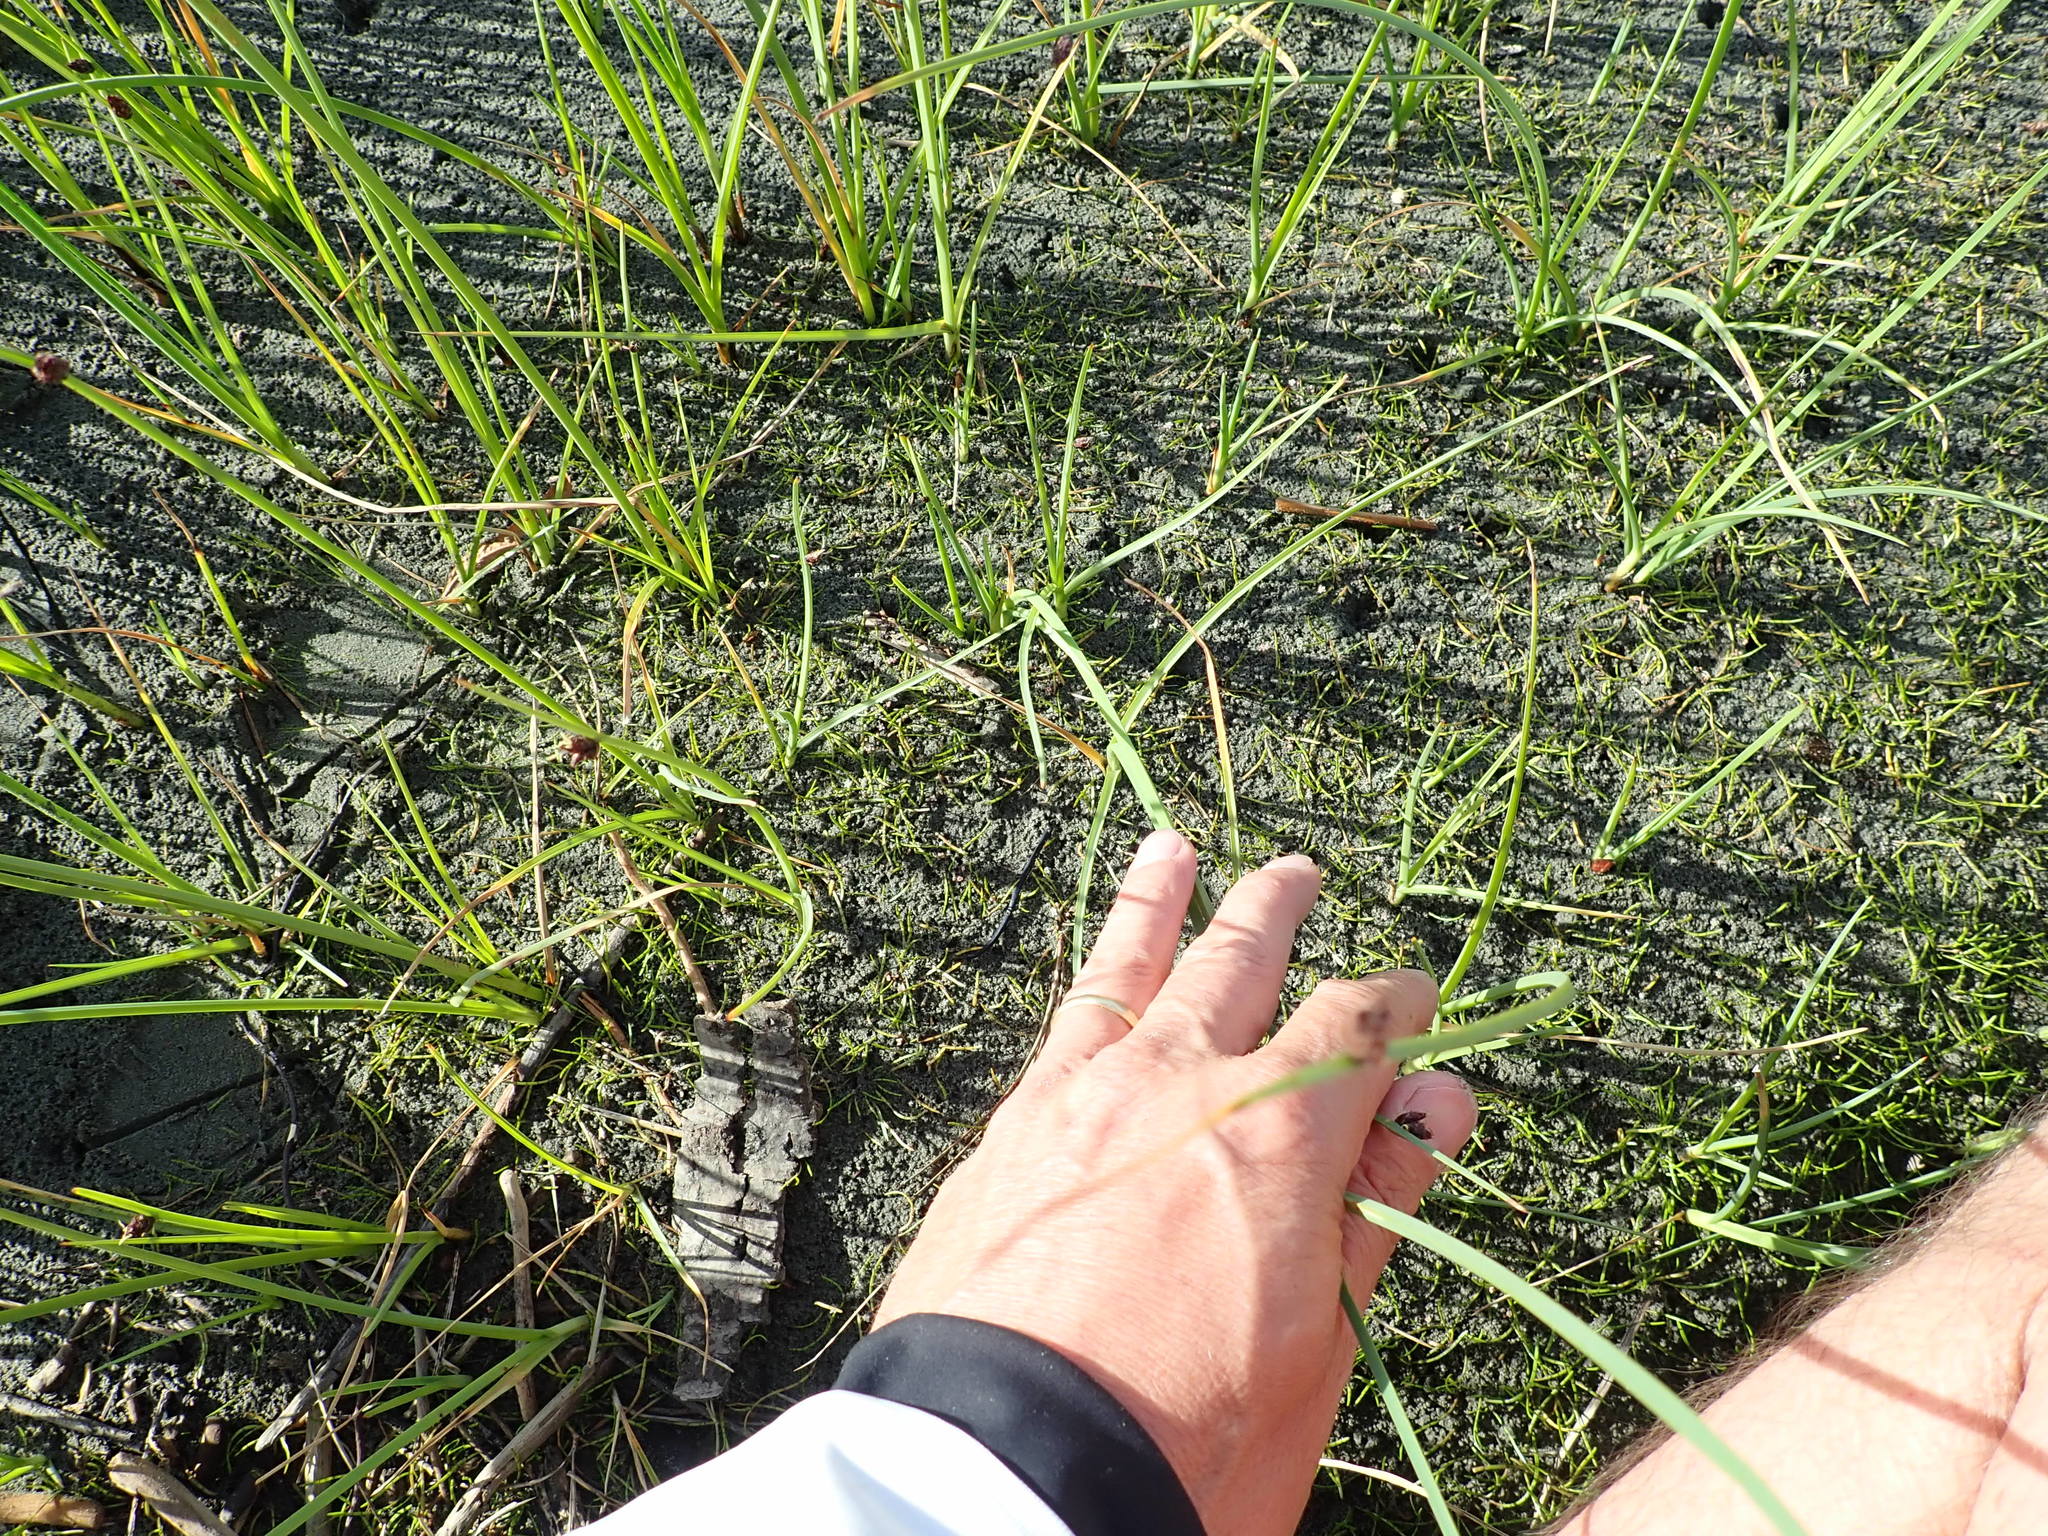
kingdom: Plantae
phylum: Tracheophyta
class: Magnoliopsida
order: Apiales
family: Apiaceae
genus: Lilaeopsis
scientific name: Lilaeopsis novae-zelandiae
